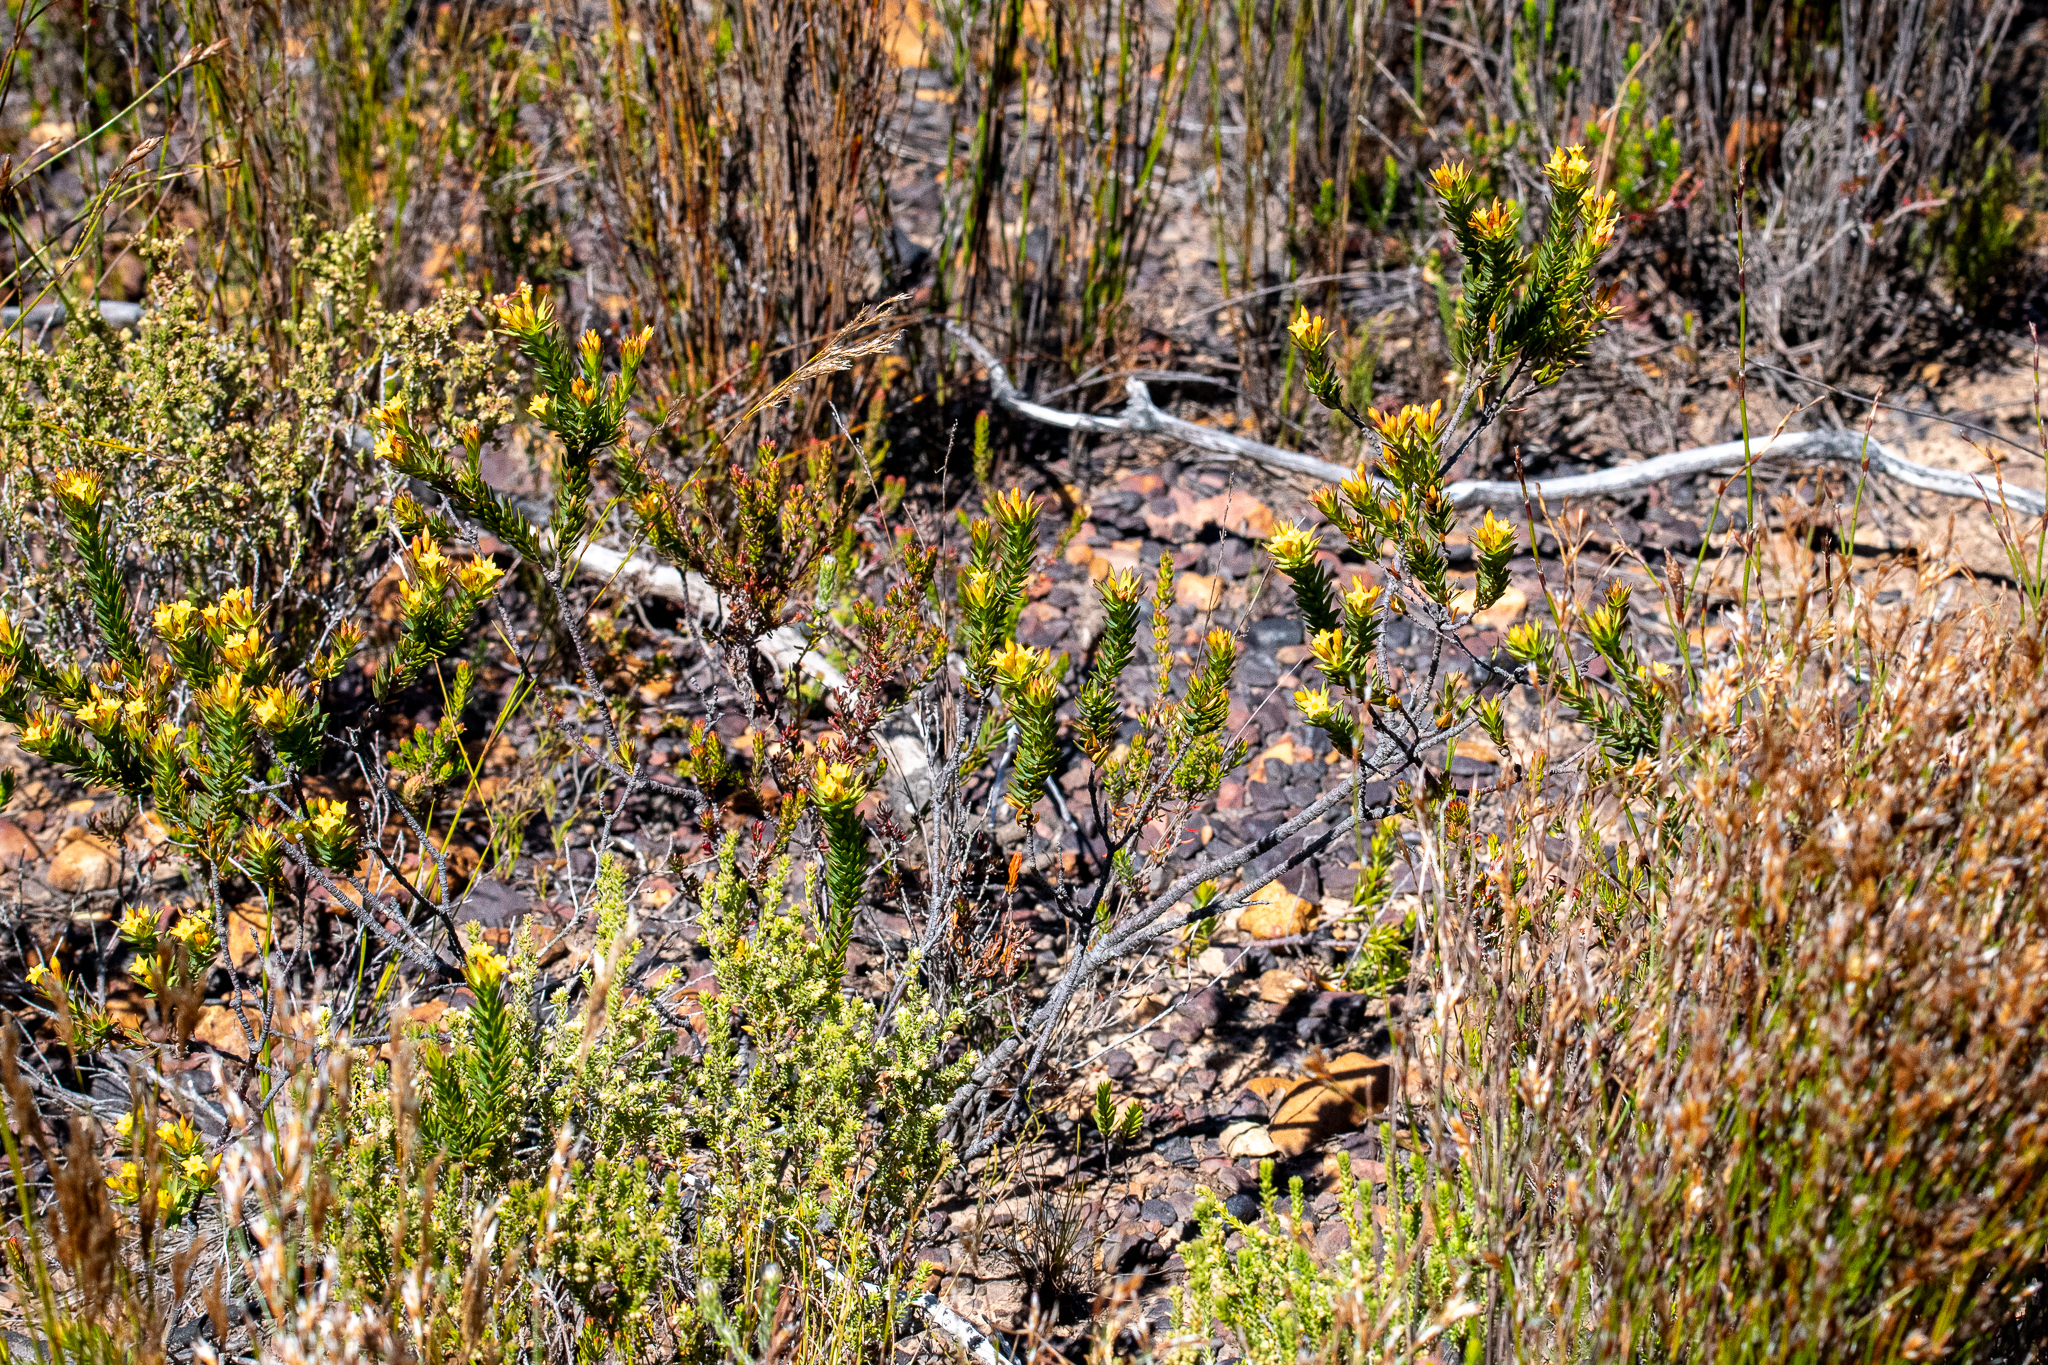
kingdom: Plantae
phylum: Tracheophyta
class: Magnoliopsida
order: Malvales
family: Thymelaeaceae
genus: Gnidia
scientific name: Gnidia juniperifolia
